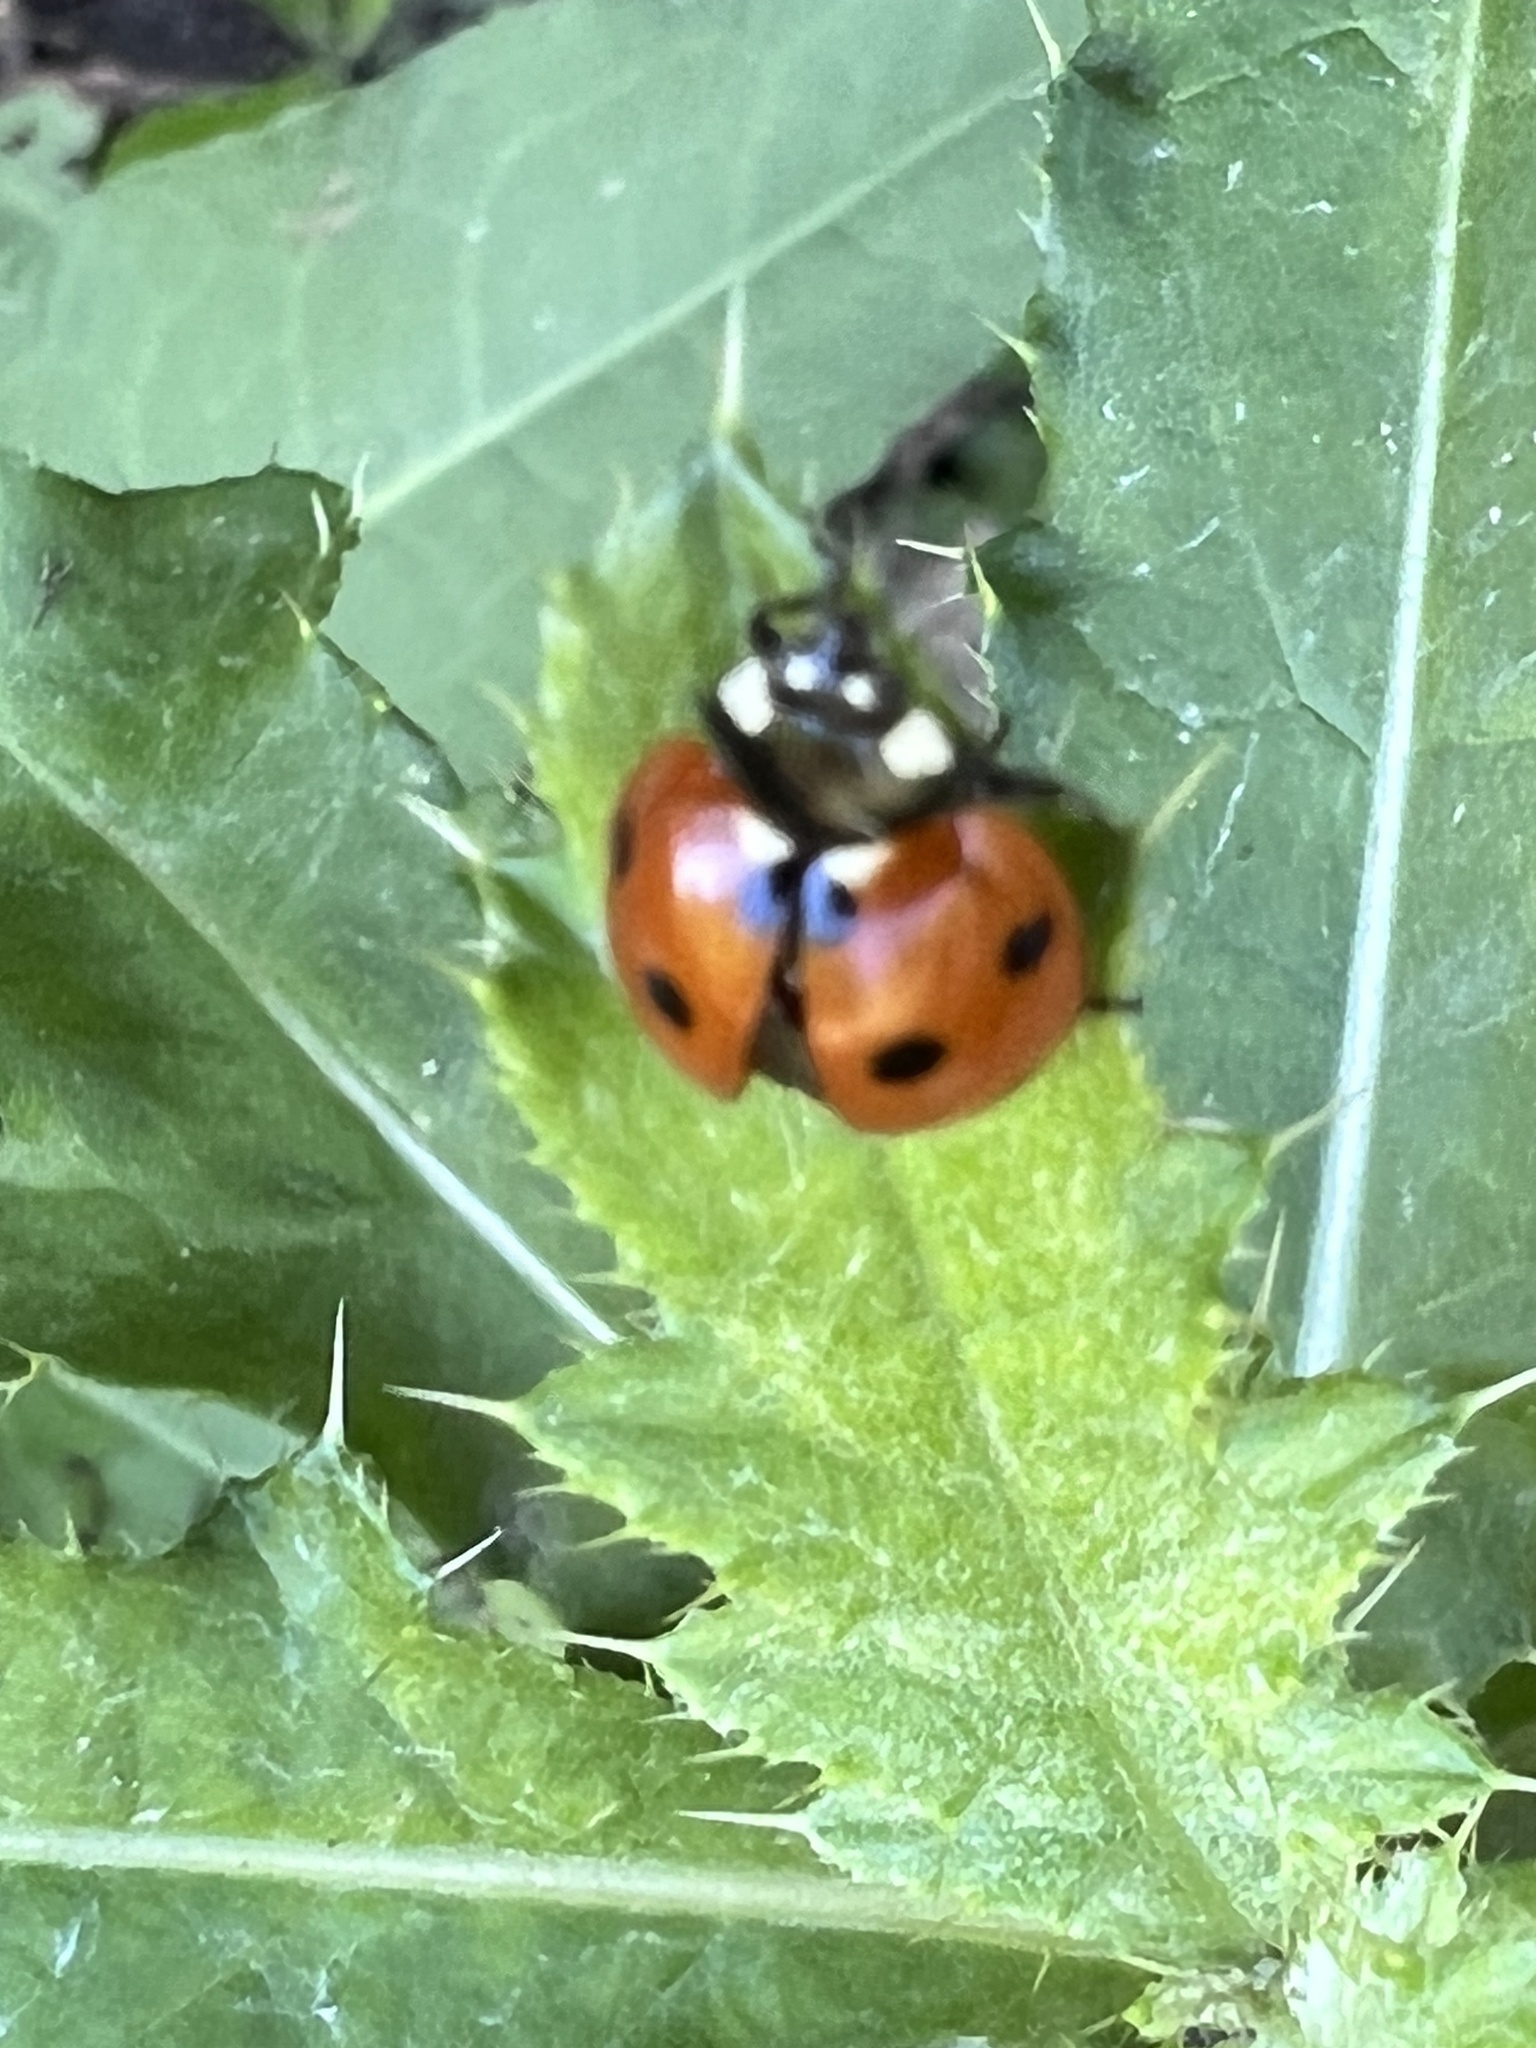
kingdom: Animalia
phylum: Arthropoda
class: Insecta
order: Coleoptera
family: Coccinellidae
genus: Coccinella
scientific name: Coccinella septempunctata
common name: Sevenspotted lady beetle
